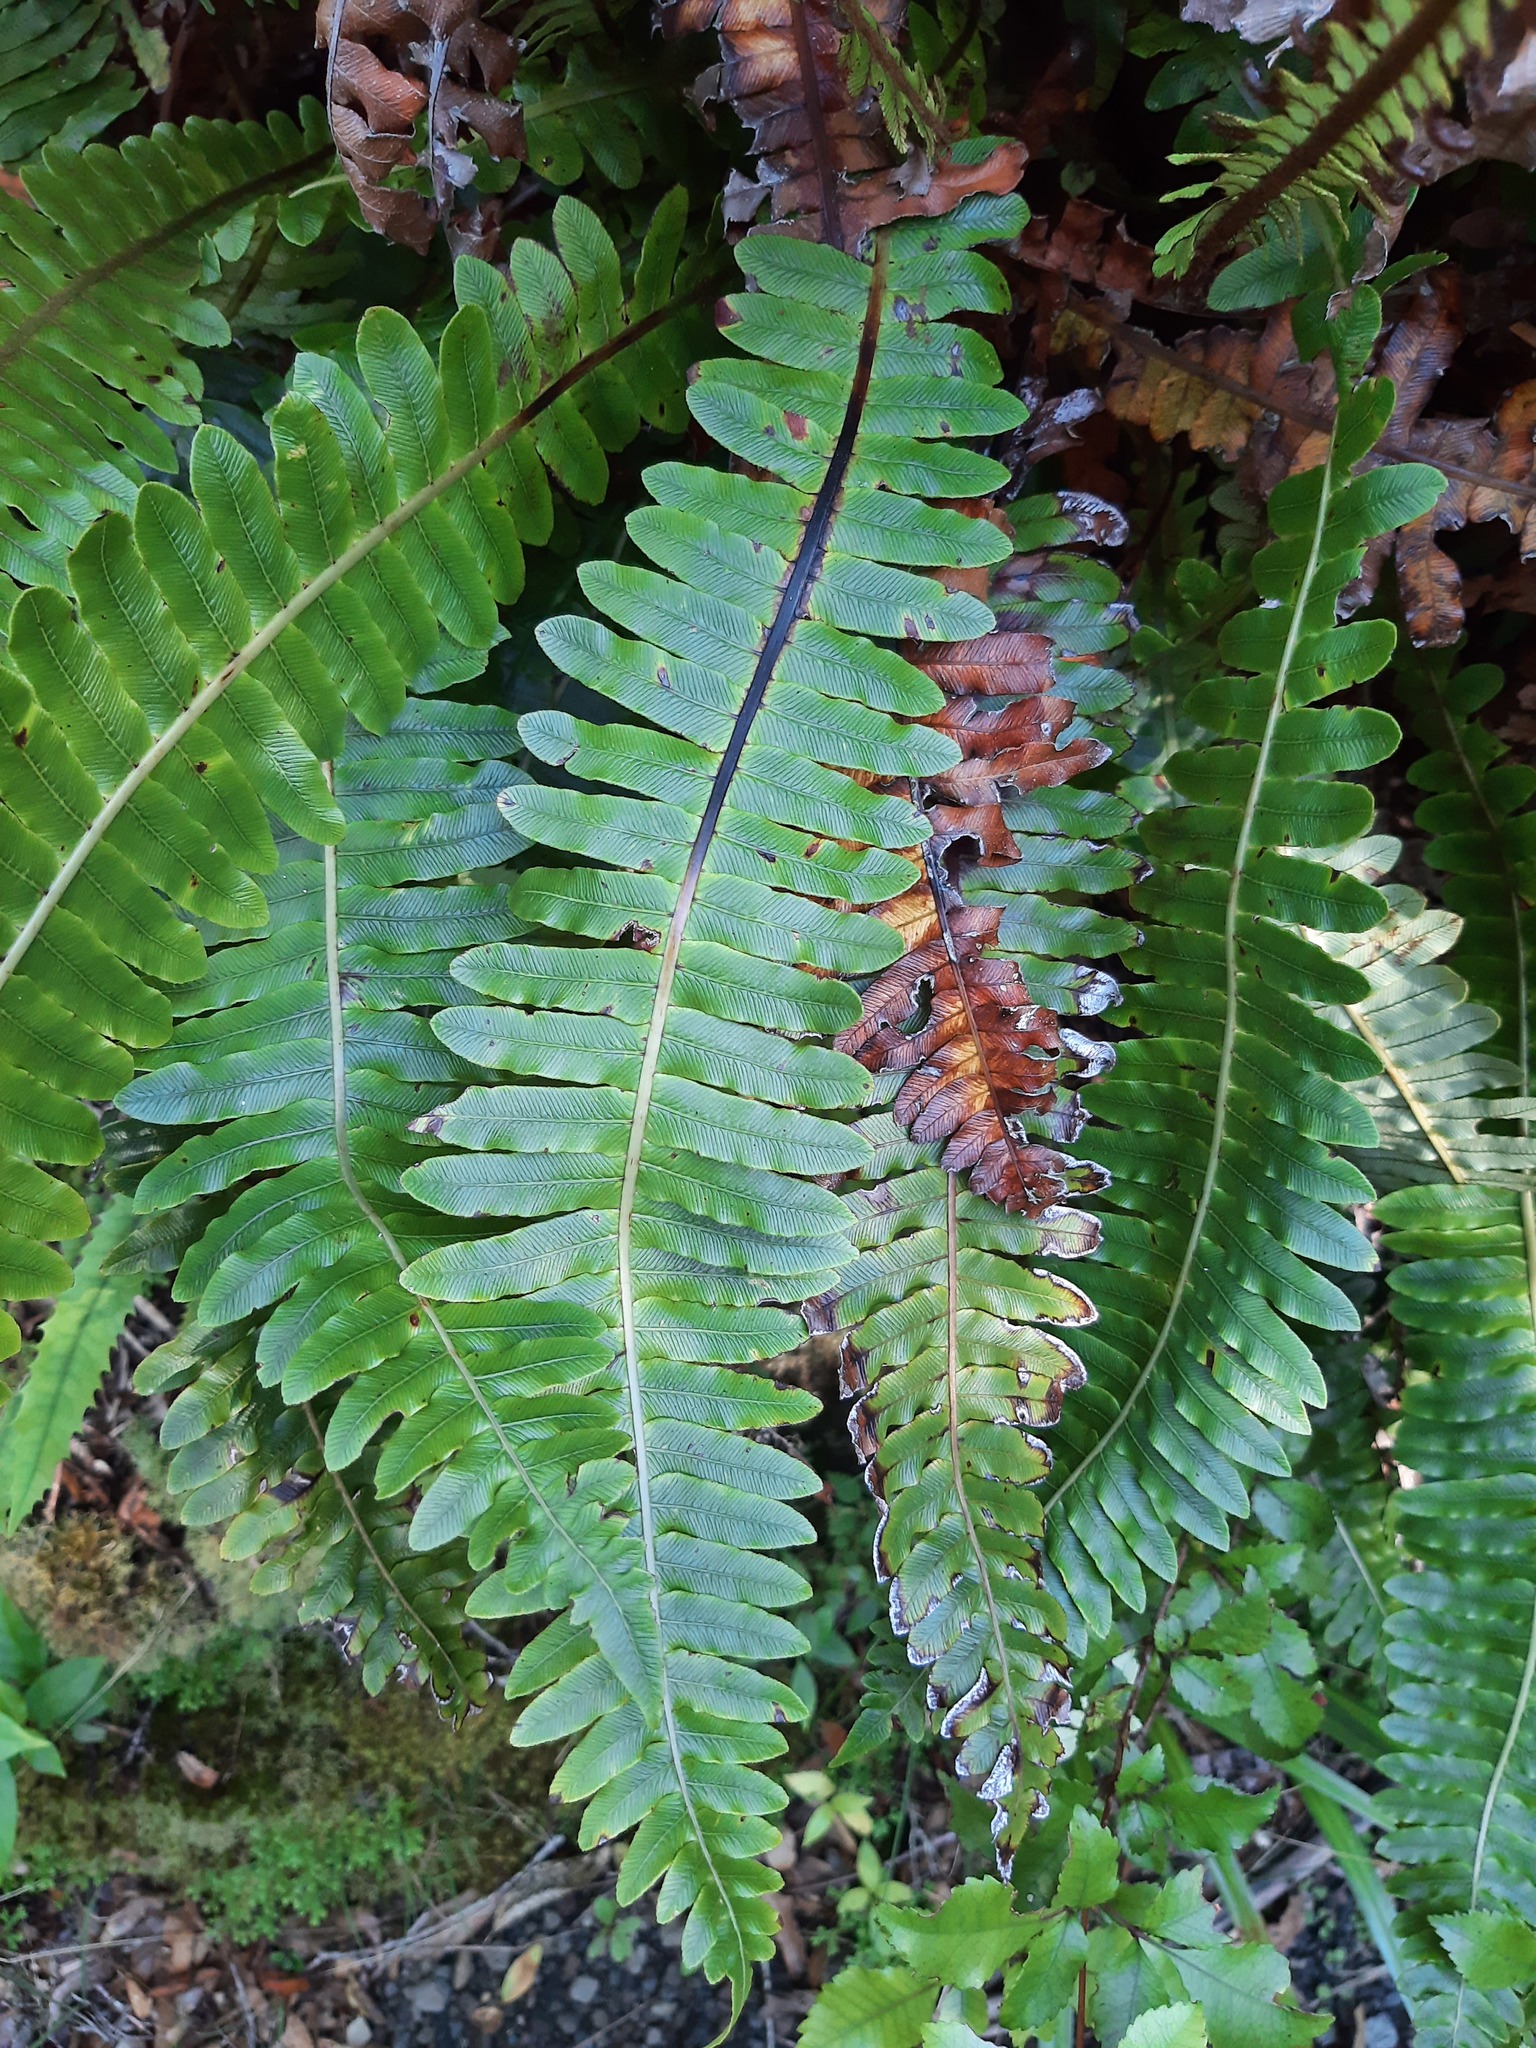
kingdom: Plantae
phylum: Tracheophyta
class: Polypodiopsida
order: Polypodiales
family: Blechnaceae
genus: Lomaria
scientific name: Lomaria discolor
